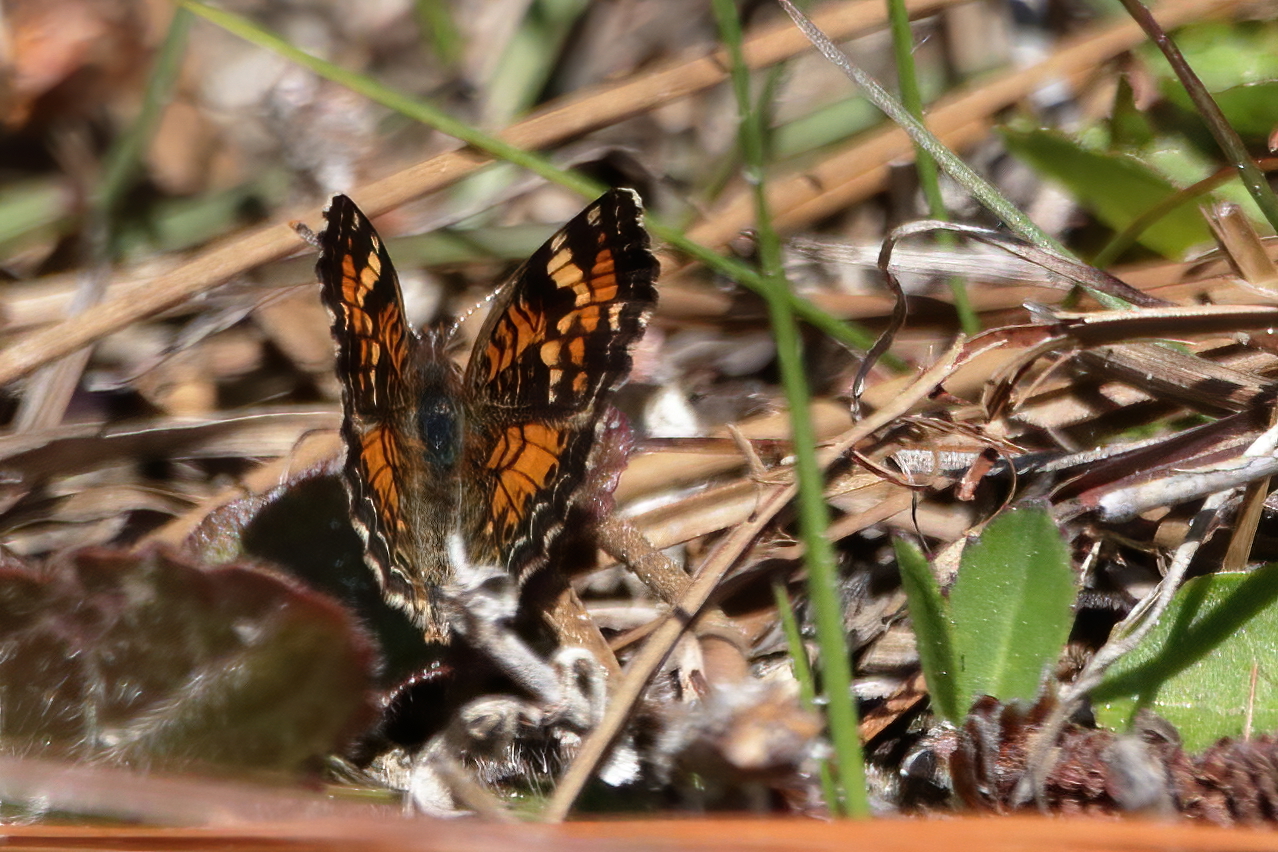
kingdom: Animalia
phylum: Arthropoda
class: Insecta
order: Lepidoptera
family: Nymphalidae
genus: Phyciodes
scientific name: Phyciodes phaon
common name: Phaon crescent
